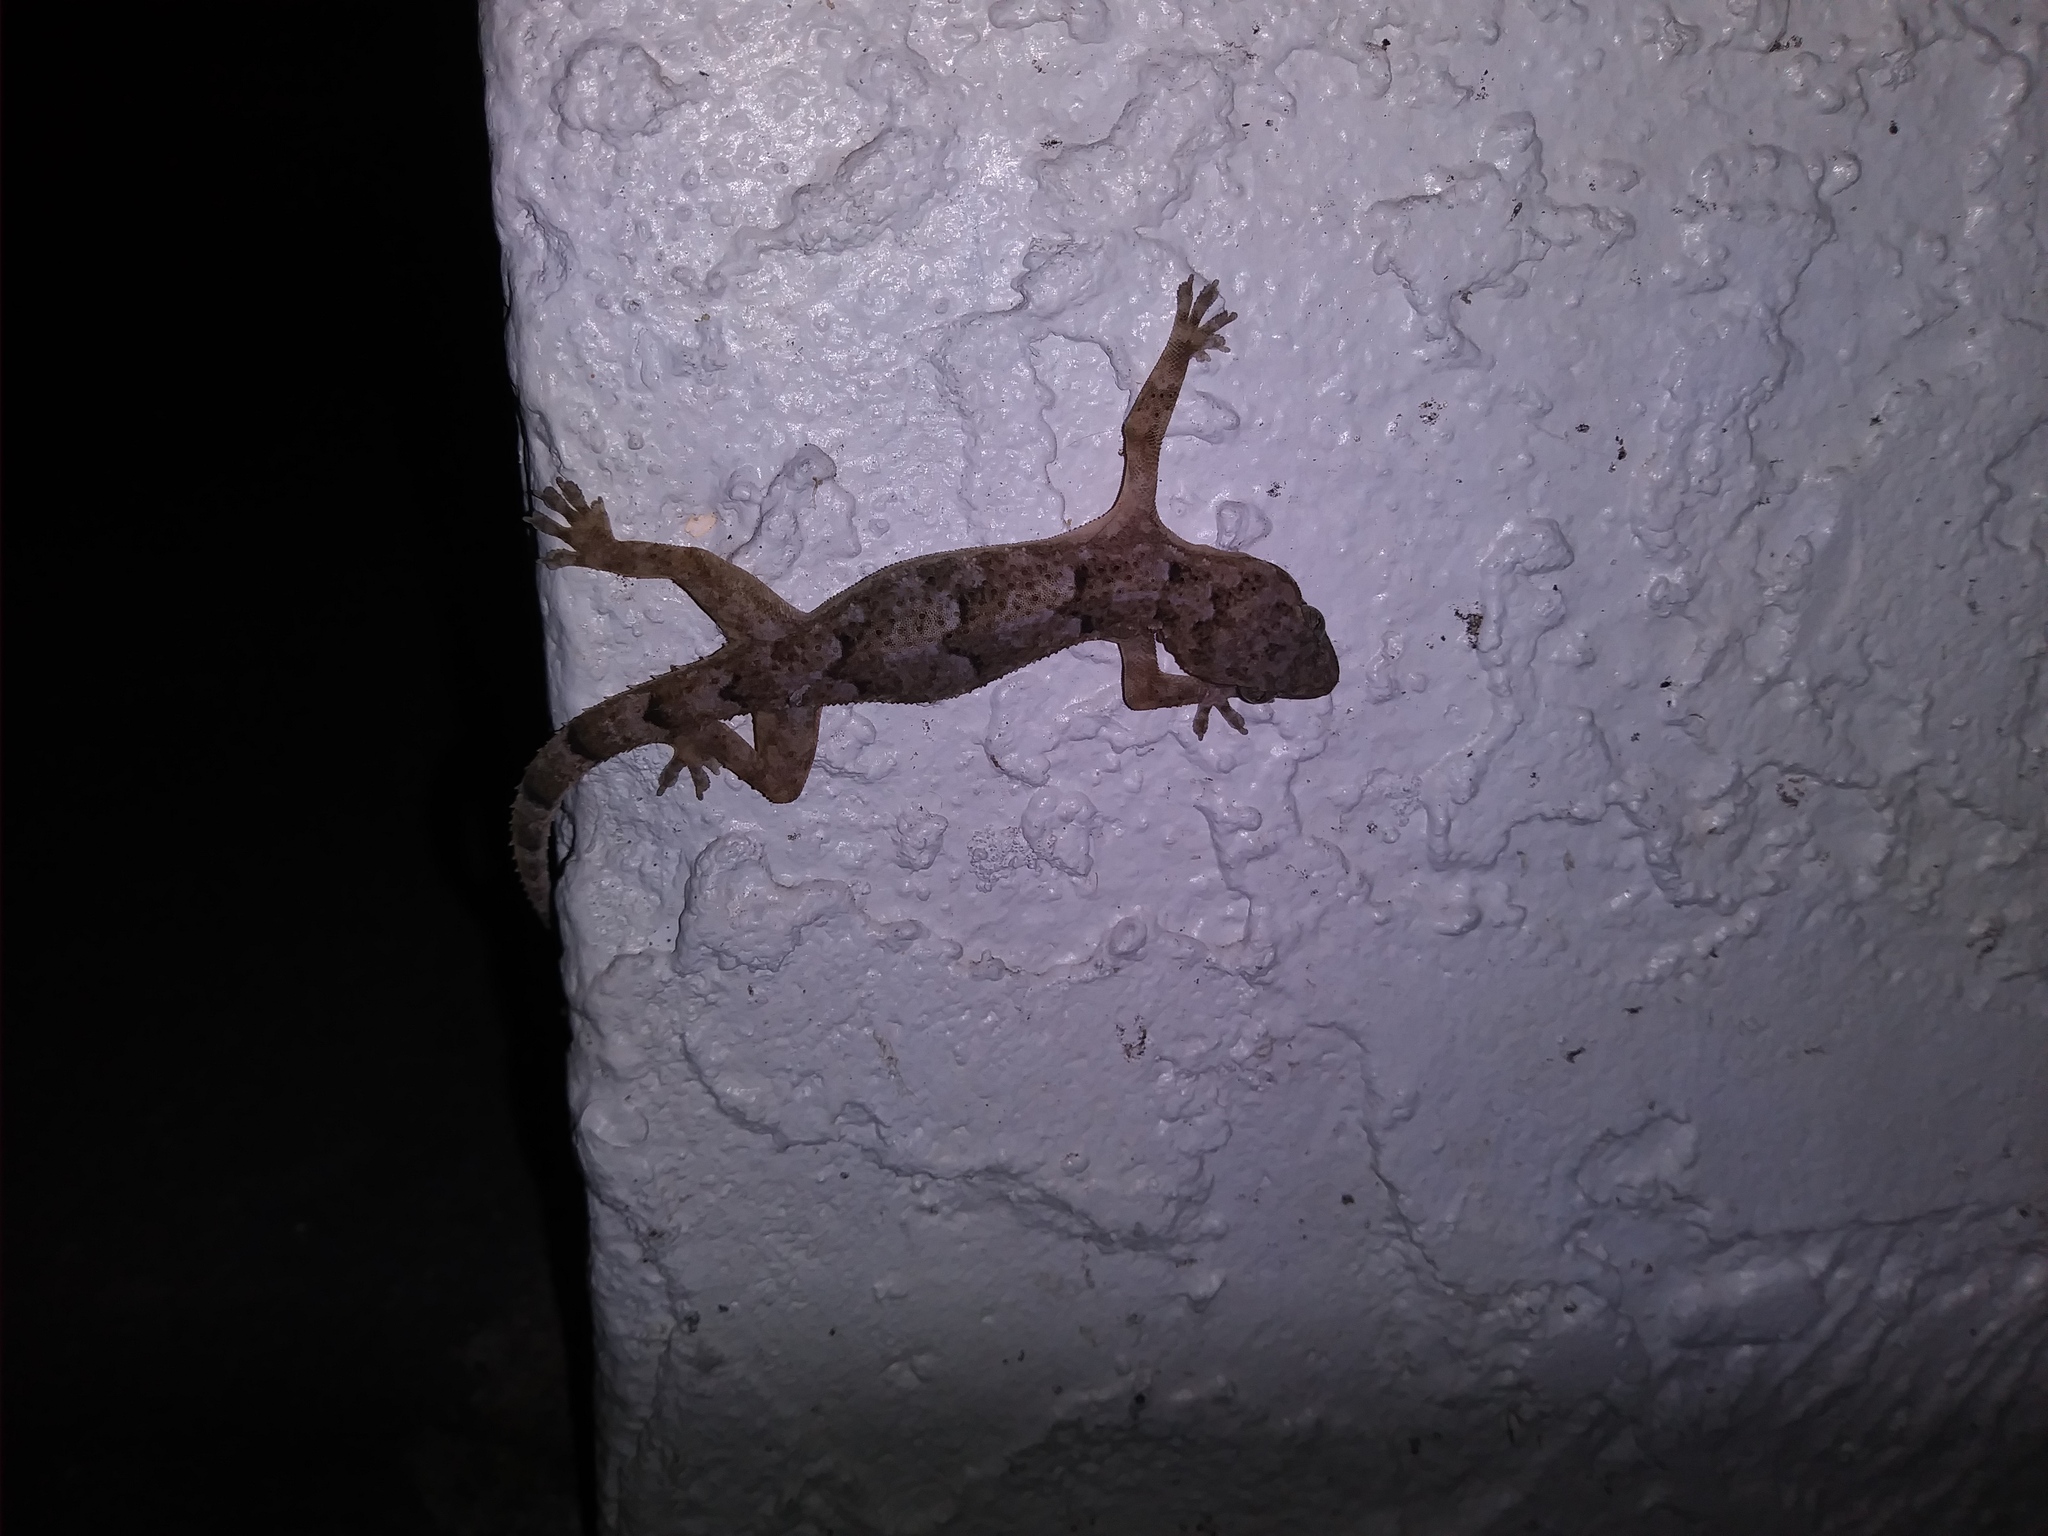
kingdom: Animalia
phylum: Chordata
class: Squamata
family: Gekkonidae
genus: Hemidactylus
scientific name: Hemidactylus mabouia
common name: House gecko
